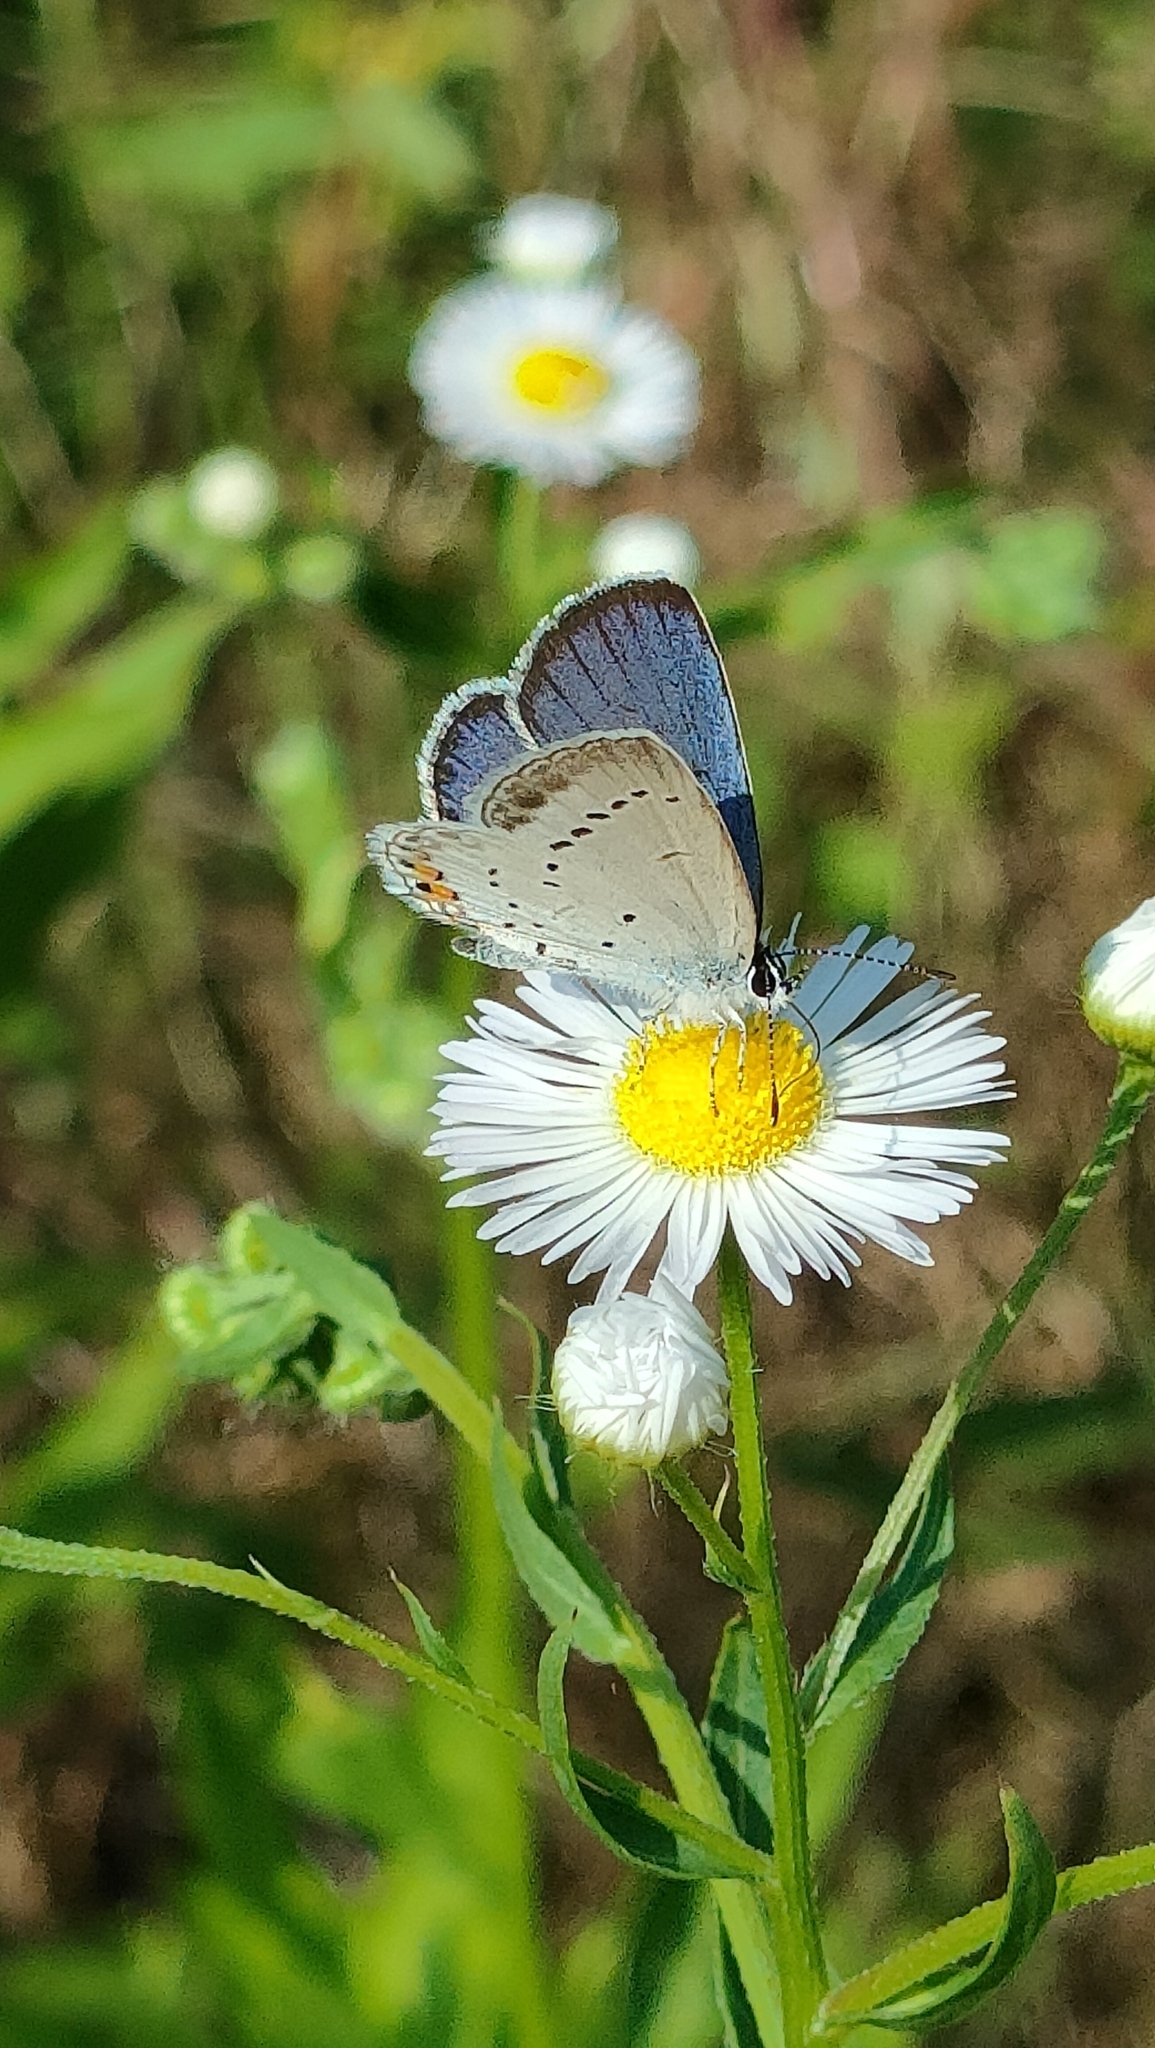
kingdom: Animalia
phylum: Arthropoda
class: Insecta
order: Lepidoptera
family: Lycaenidae
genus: Elkalyce
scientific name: Elkalyce argiades
